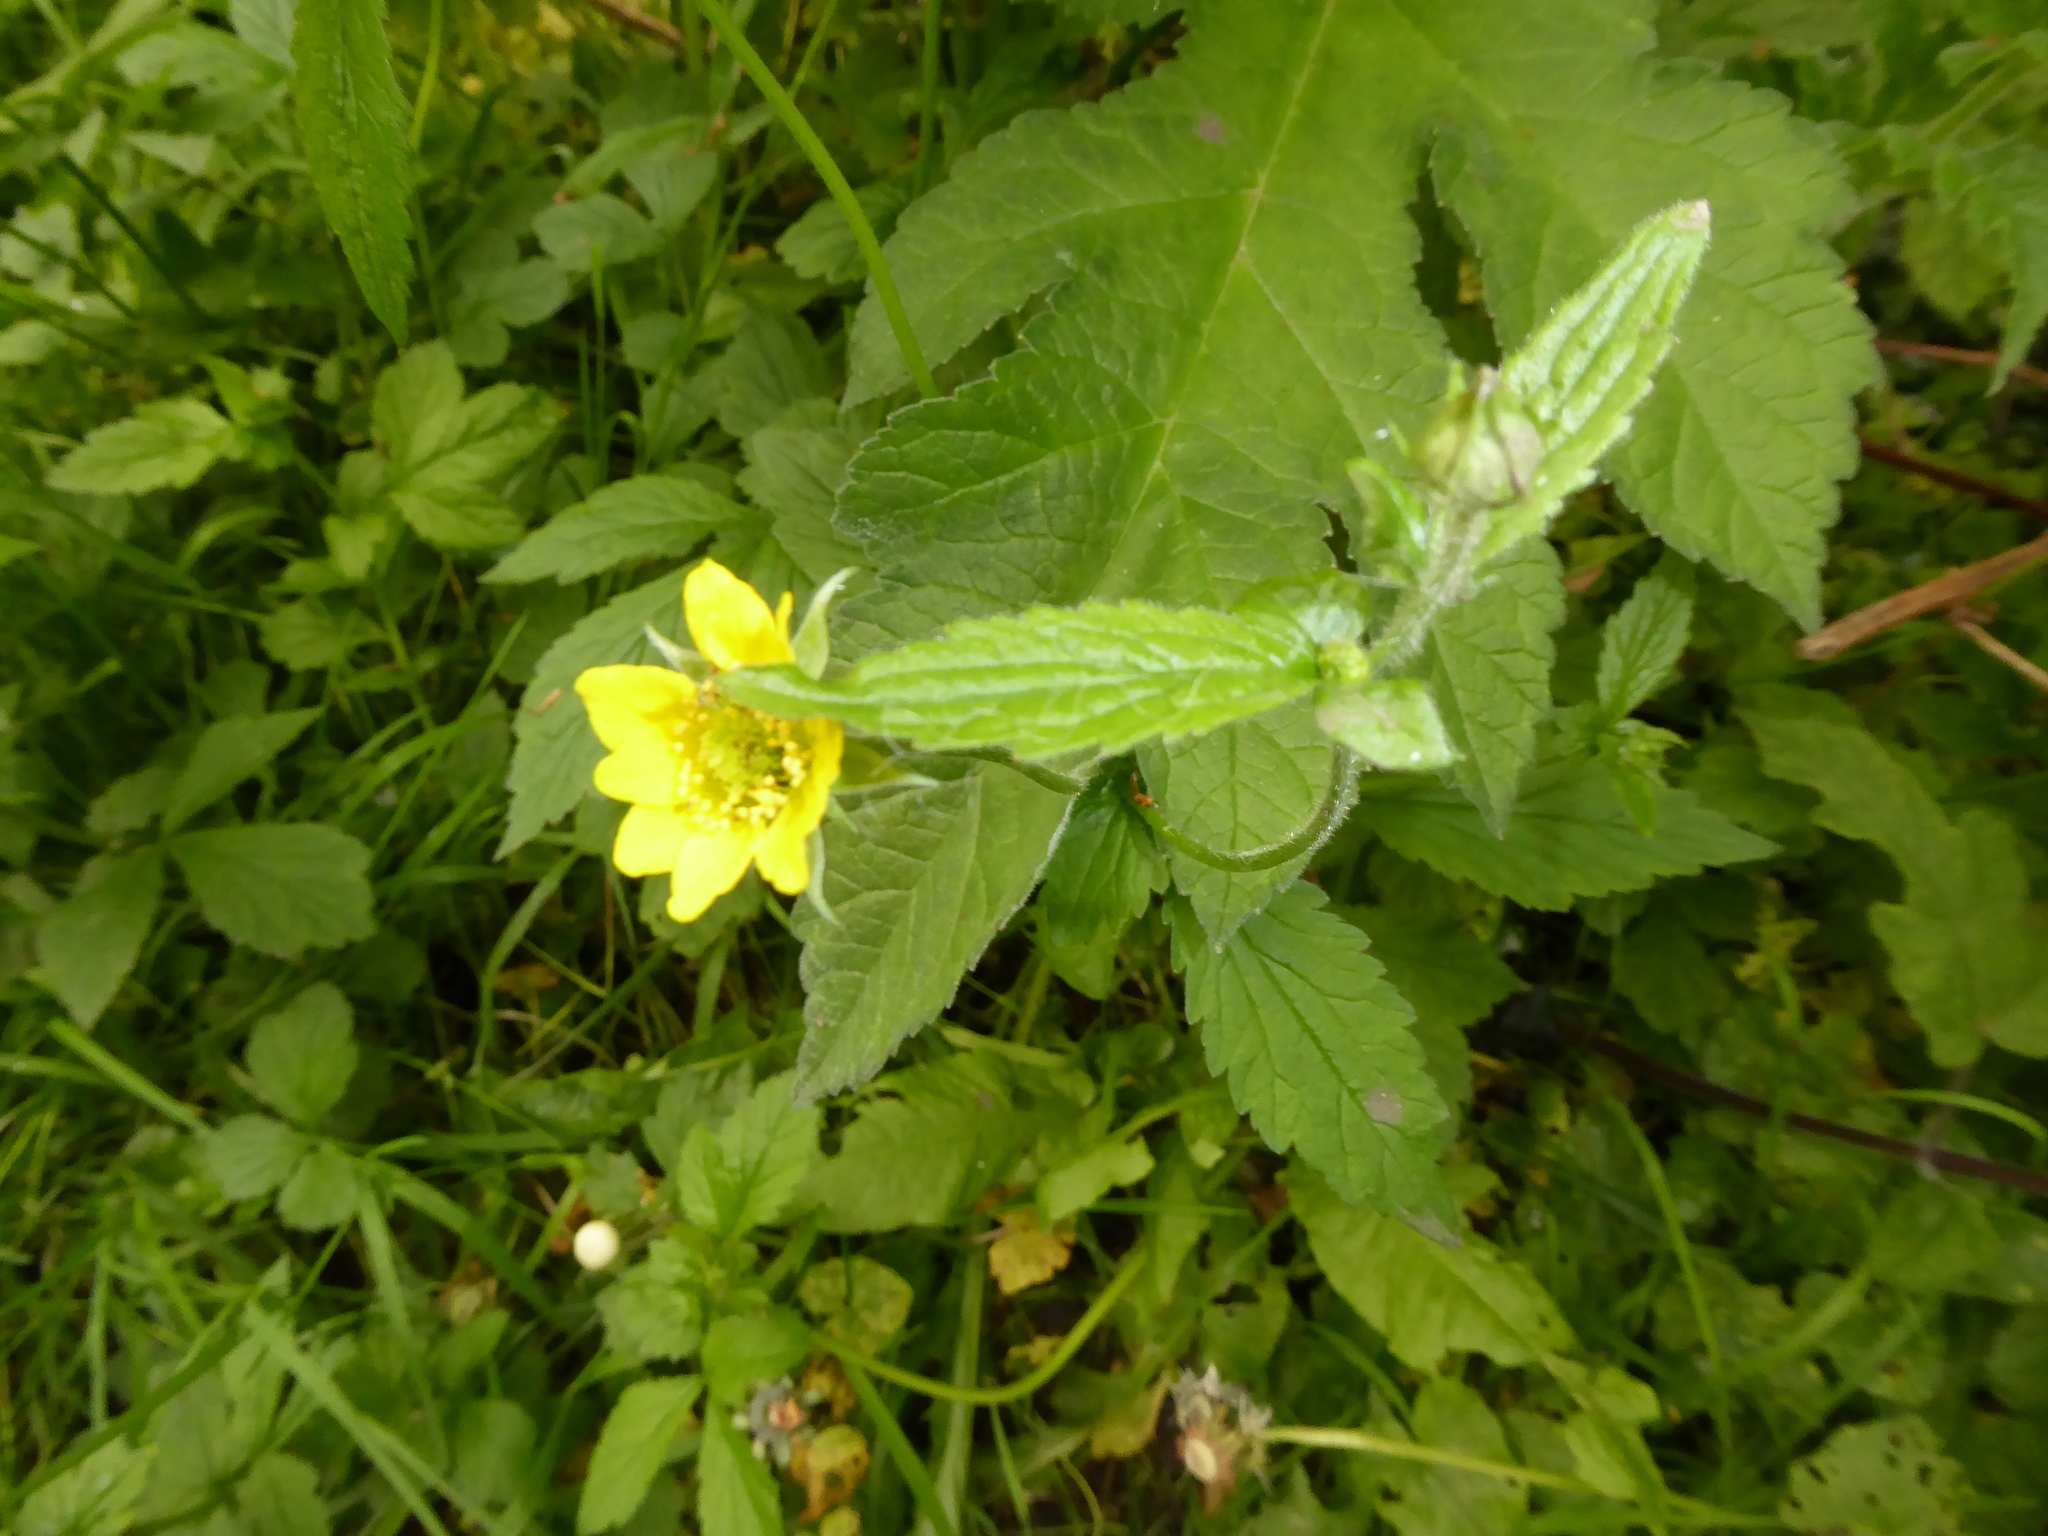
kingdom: Plantae
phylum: Tracheophyta
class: Magnoliopsida
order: Rosales
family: Rosaceae
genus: Geum
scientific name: Geum urbanum
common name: Wood avens
